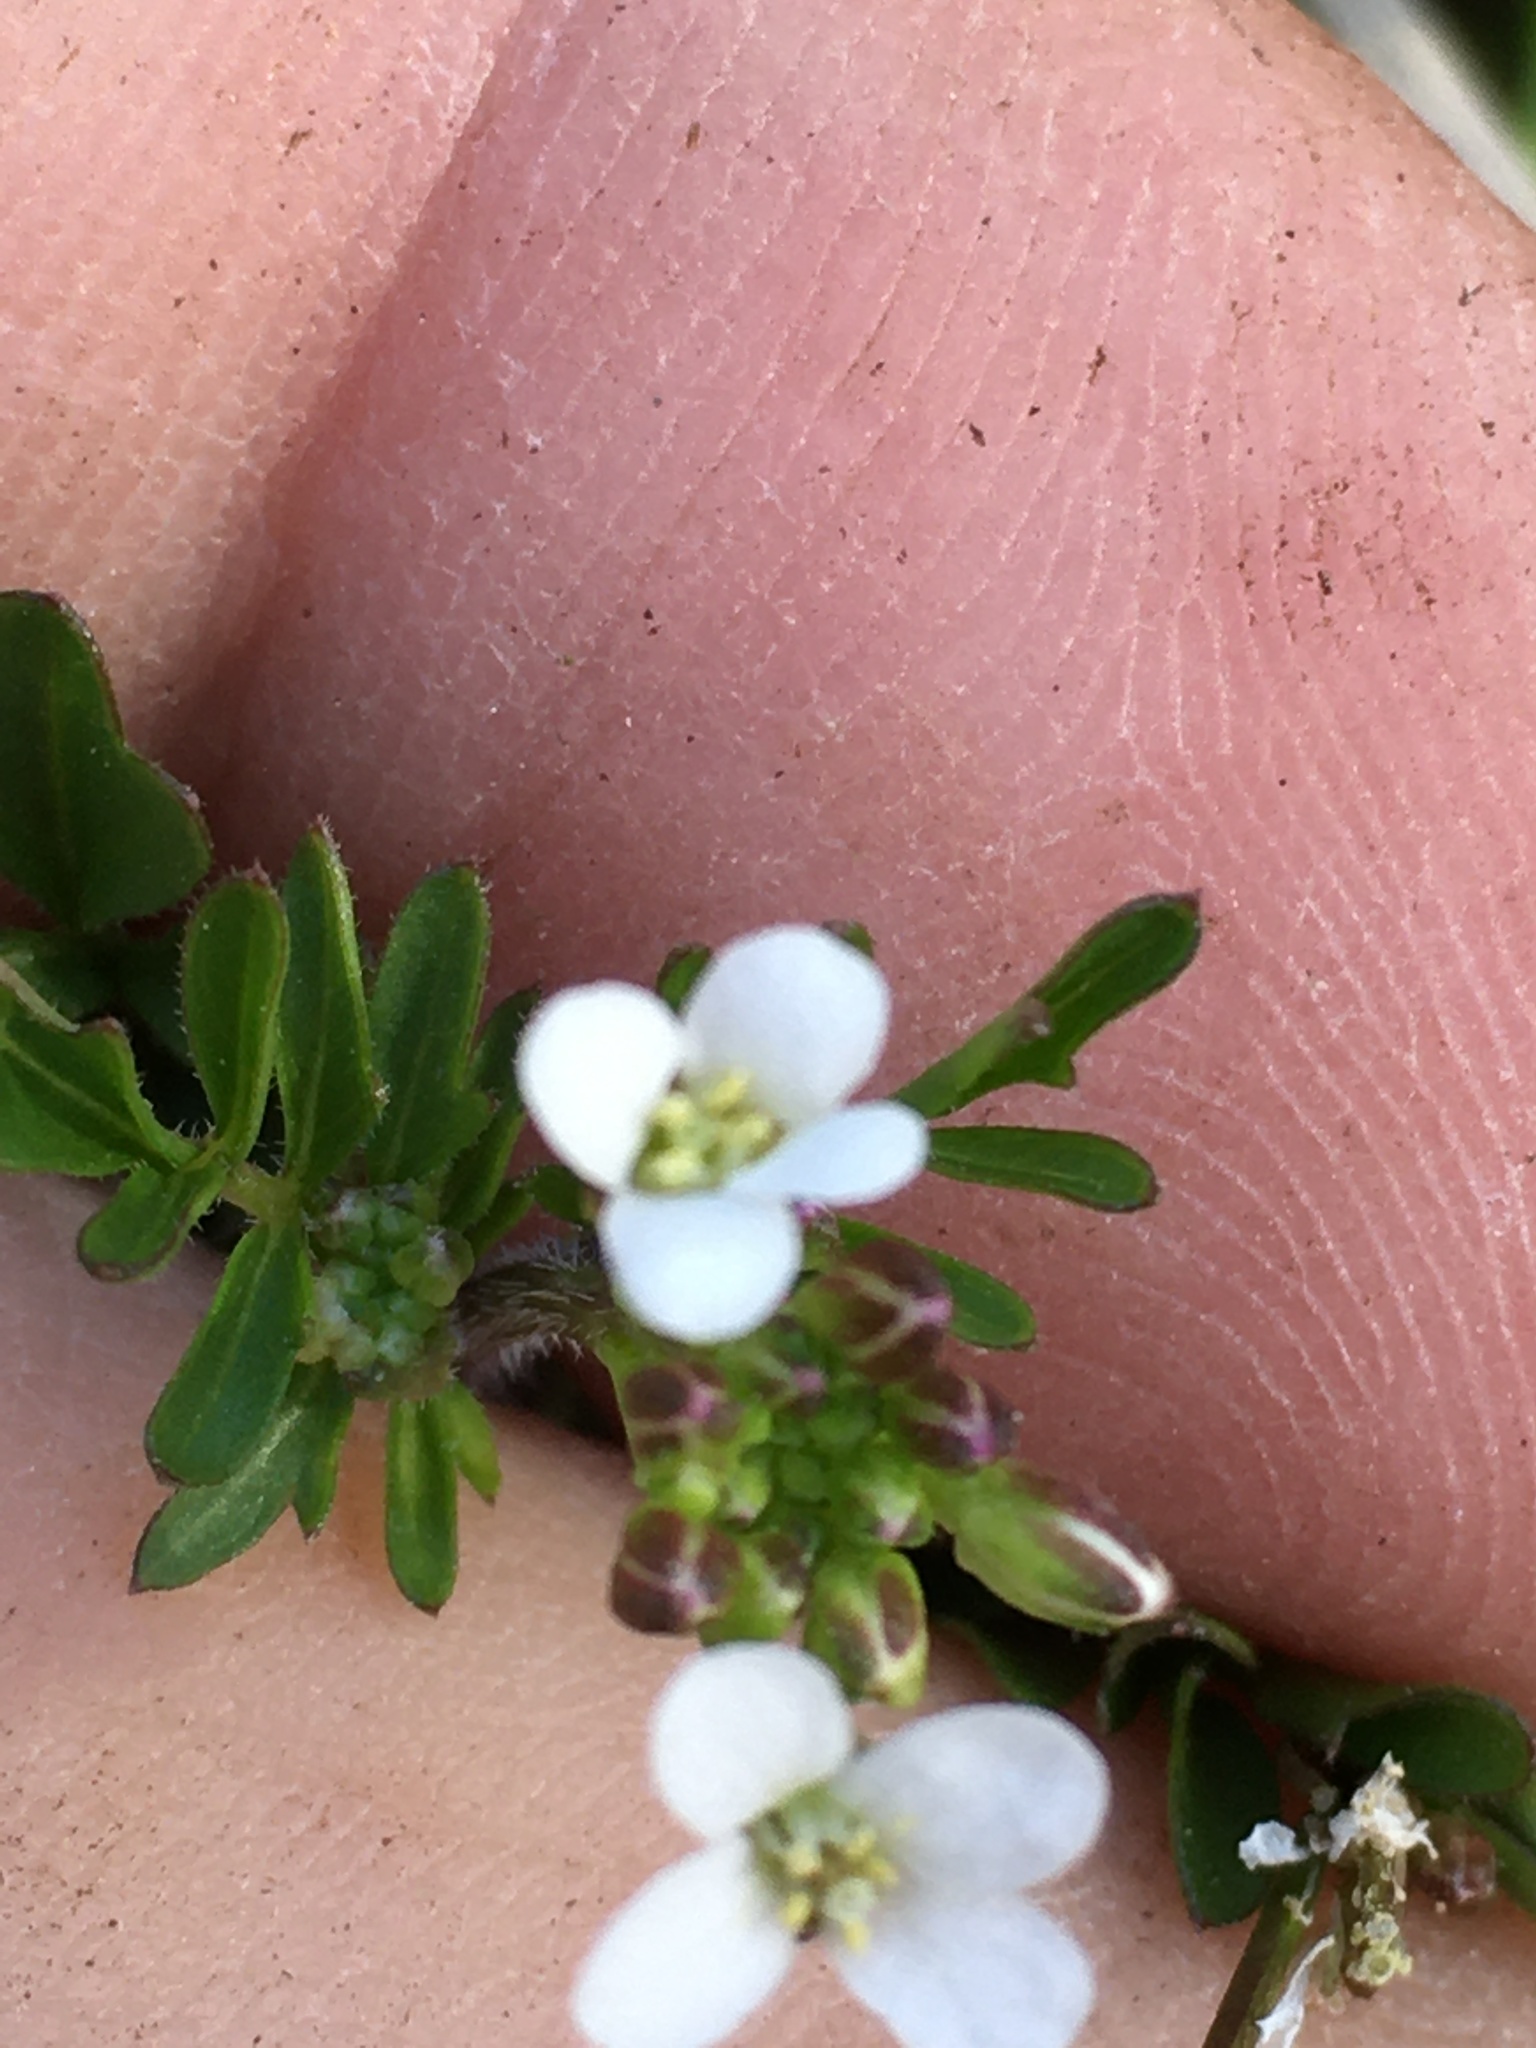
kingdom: Plantae
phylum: Tracheophyta
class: Magnoliopsida
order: Brassicales
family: Brassicaceae
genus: Cardamine
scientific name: Cardamine hirsuta
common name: Hairy bittercress
